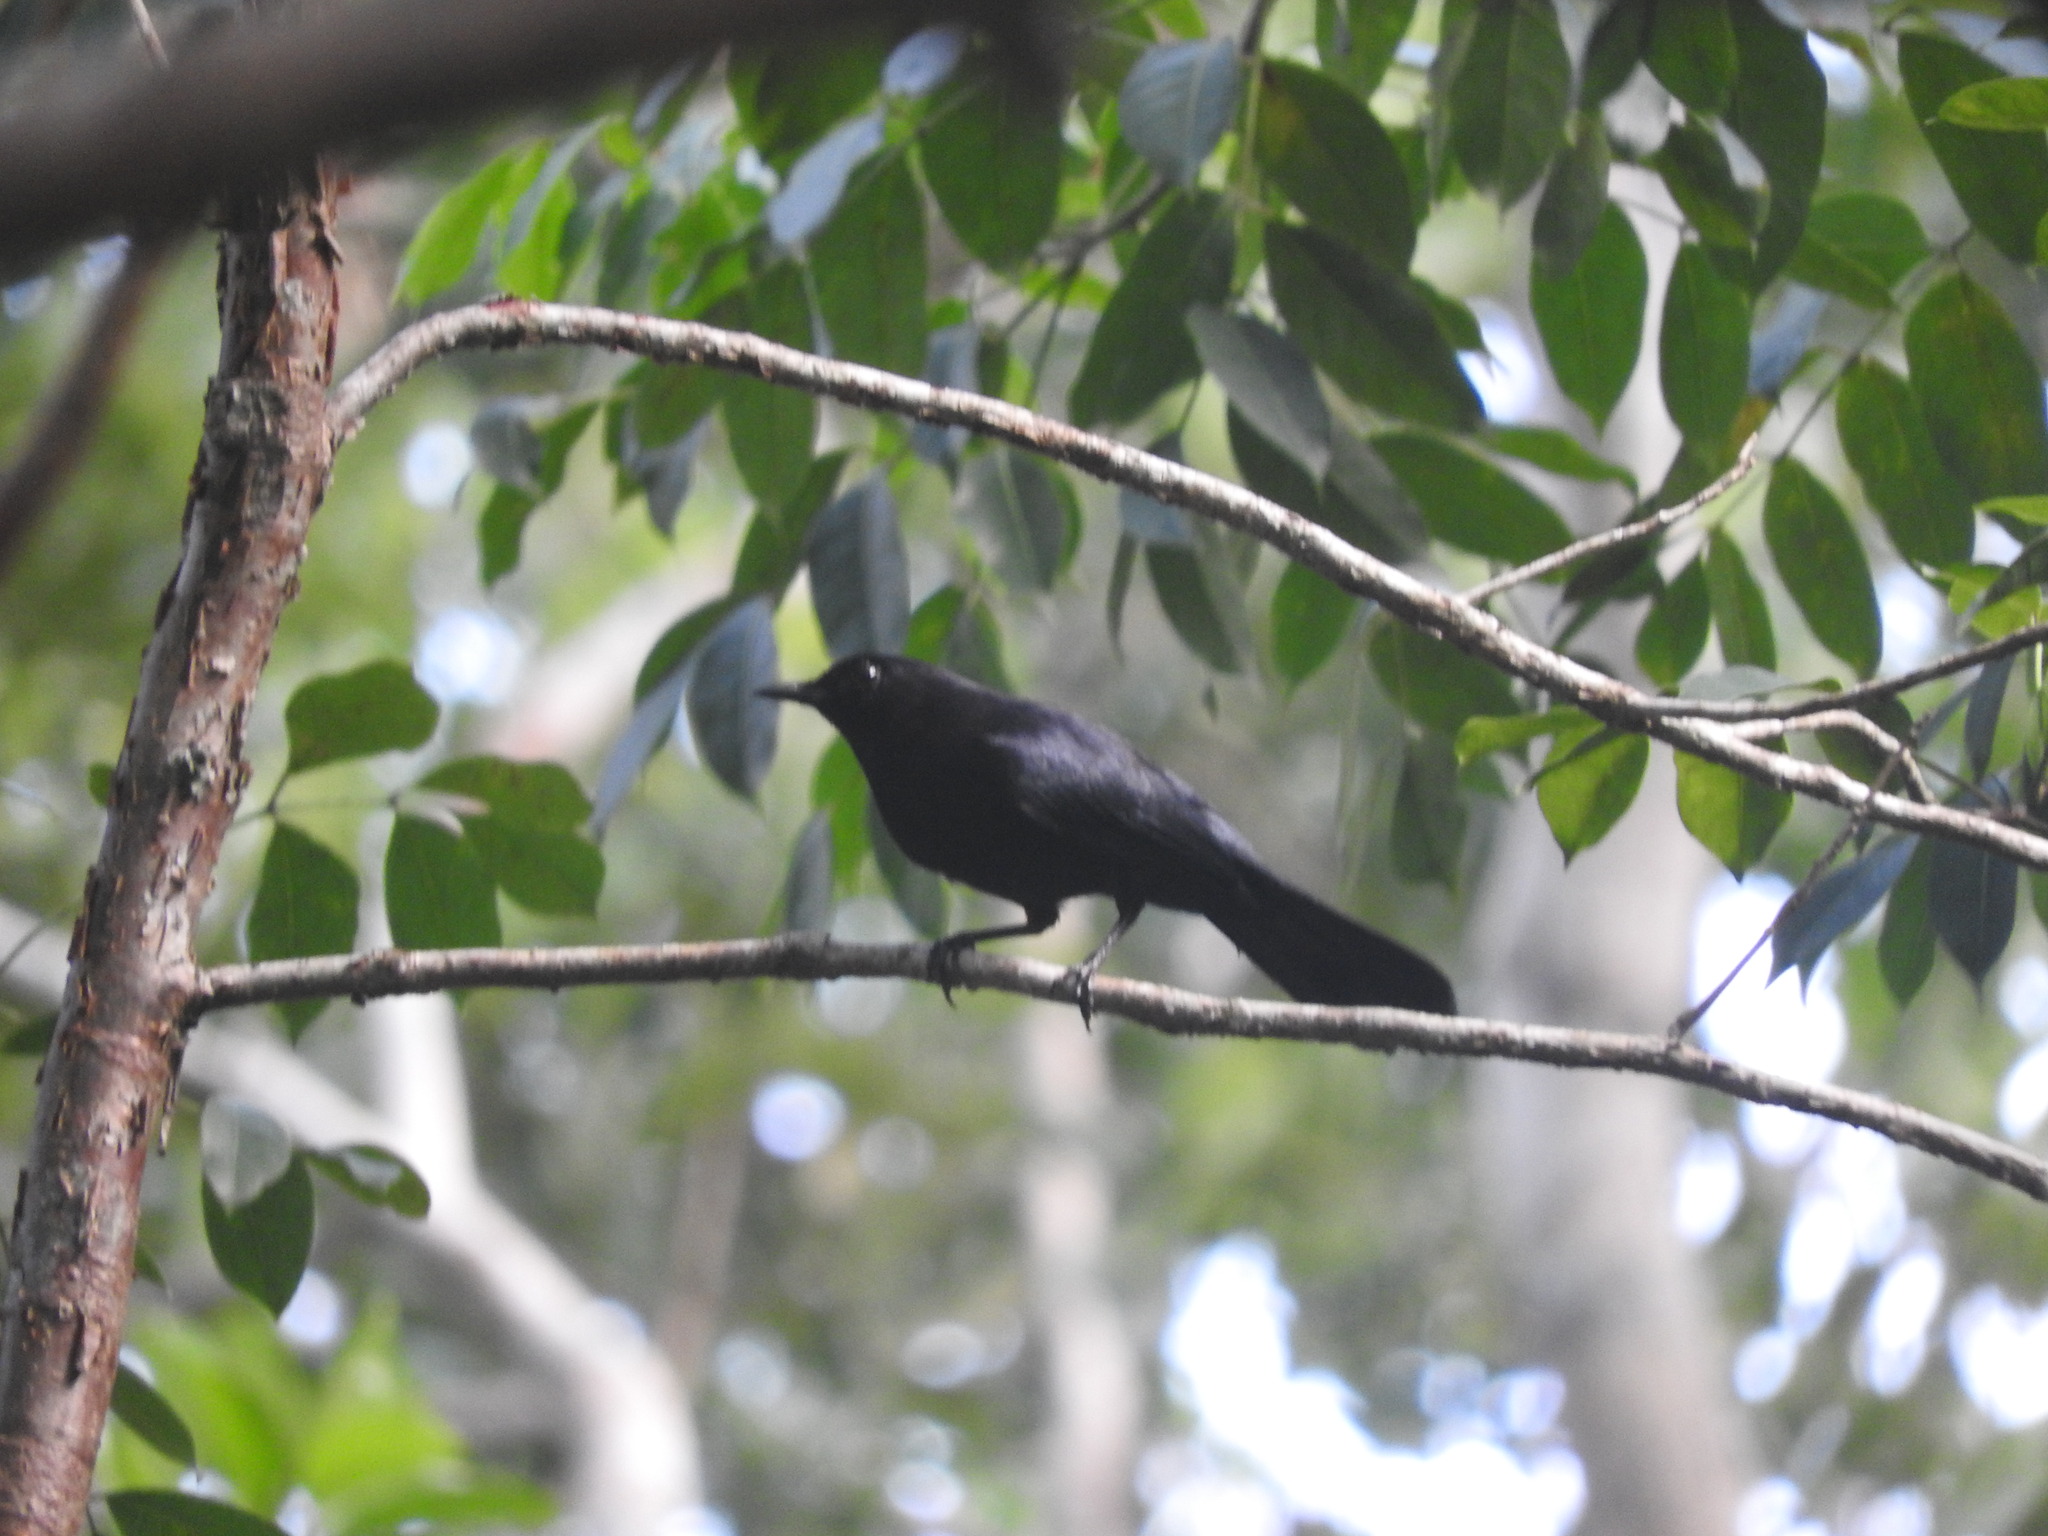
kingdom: Animalia
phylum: Chordata
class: Aves
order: Passeriformes
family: Mimidae
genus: Melanoptila
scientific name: Melanoptila glabrirostris
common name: Black catbird
